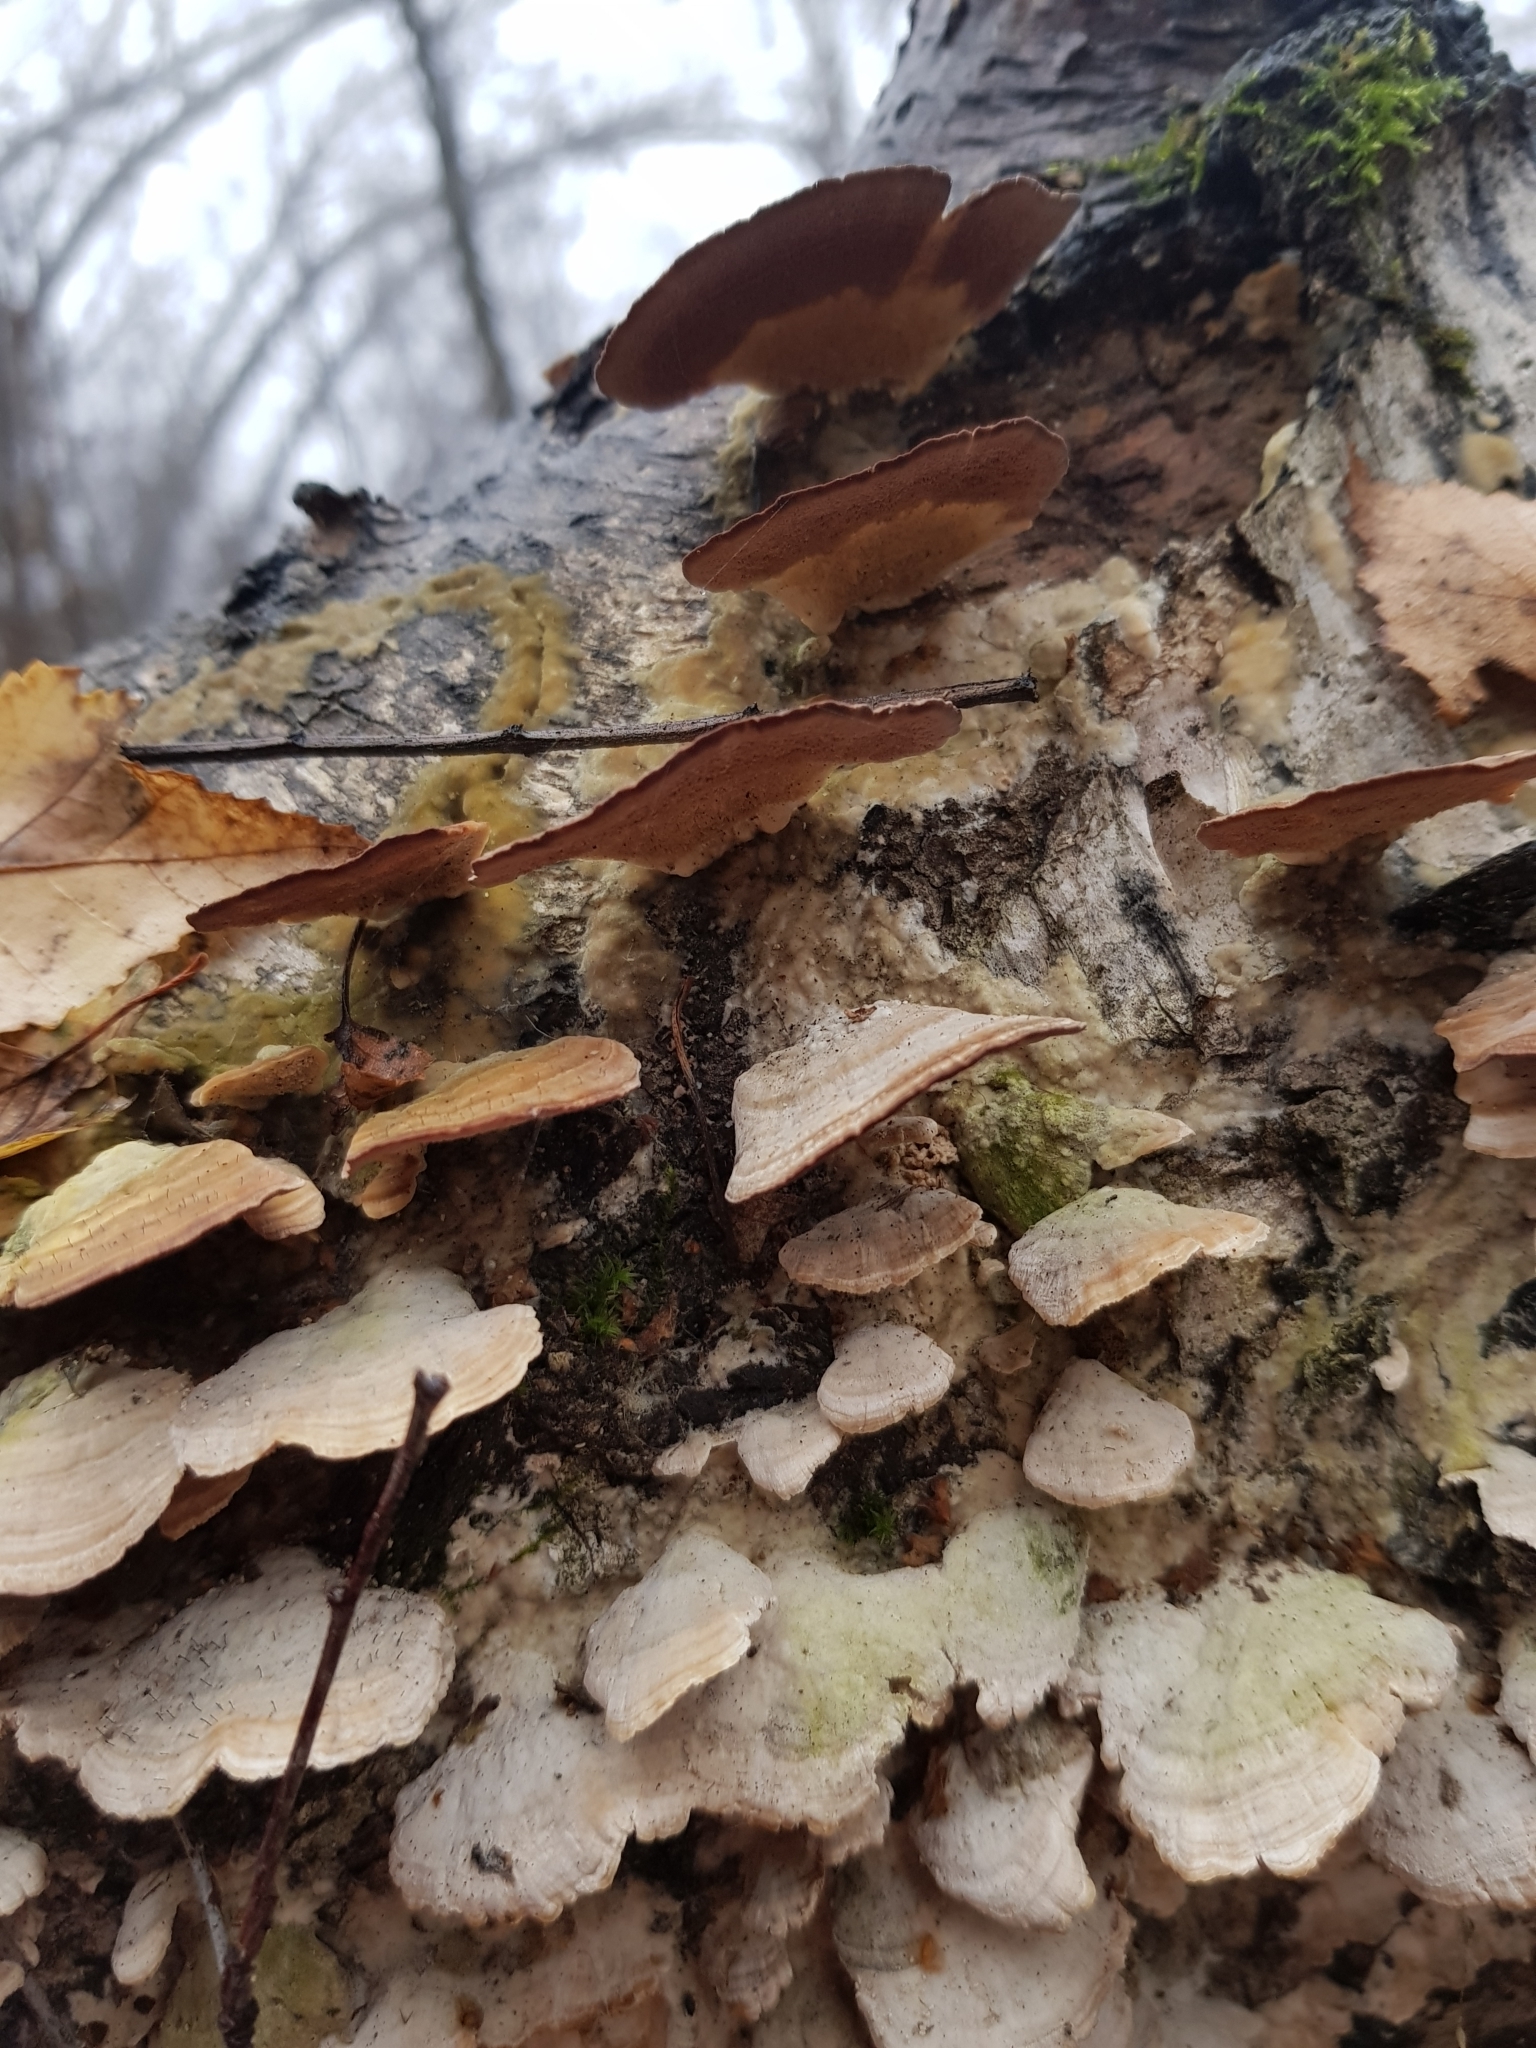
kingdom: Fungi
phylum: Basidiomycota
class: Agaricomycetes
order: Hymenochaetales
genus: Trichaptum
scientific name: Trichaptum biforme
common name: Violet-toothed polypore
